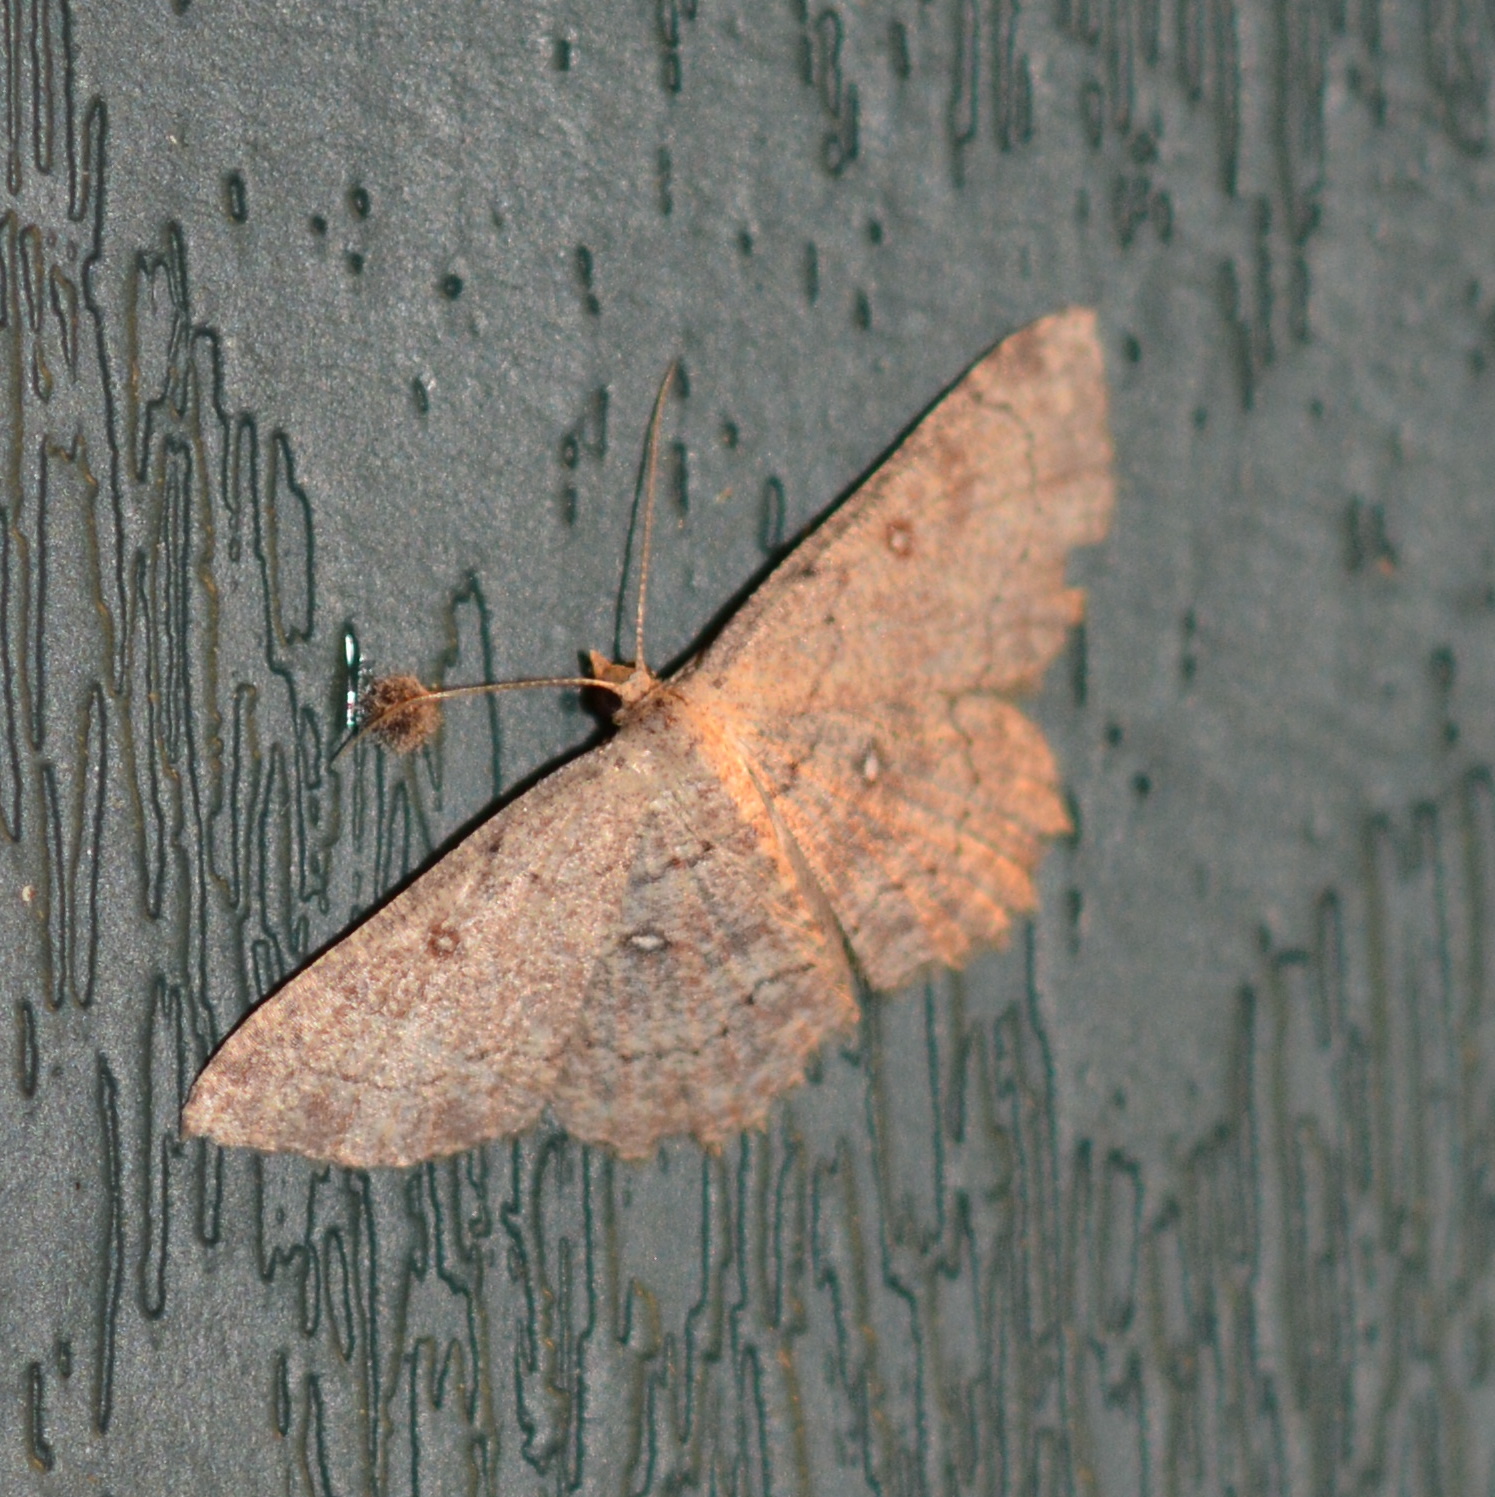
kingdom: Animalia
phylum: Arthropoda
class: Insecta
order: Lepidoptera
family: Geometridae
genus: Cyclophora
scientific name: Cyclophora nanaria
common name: Cankerworm
